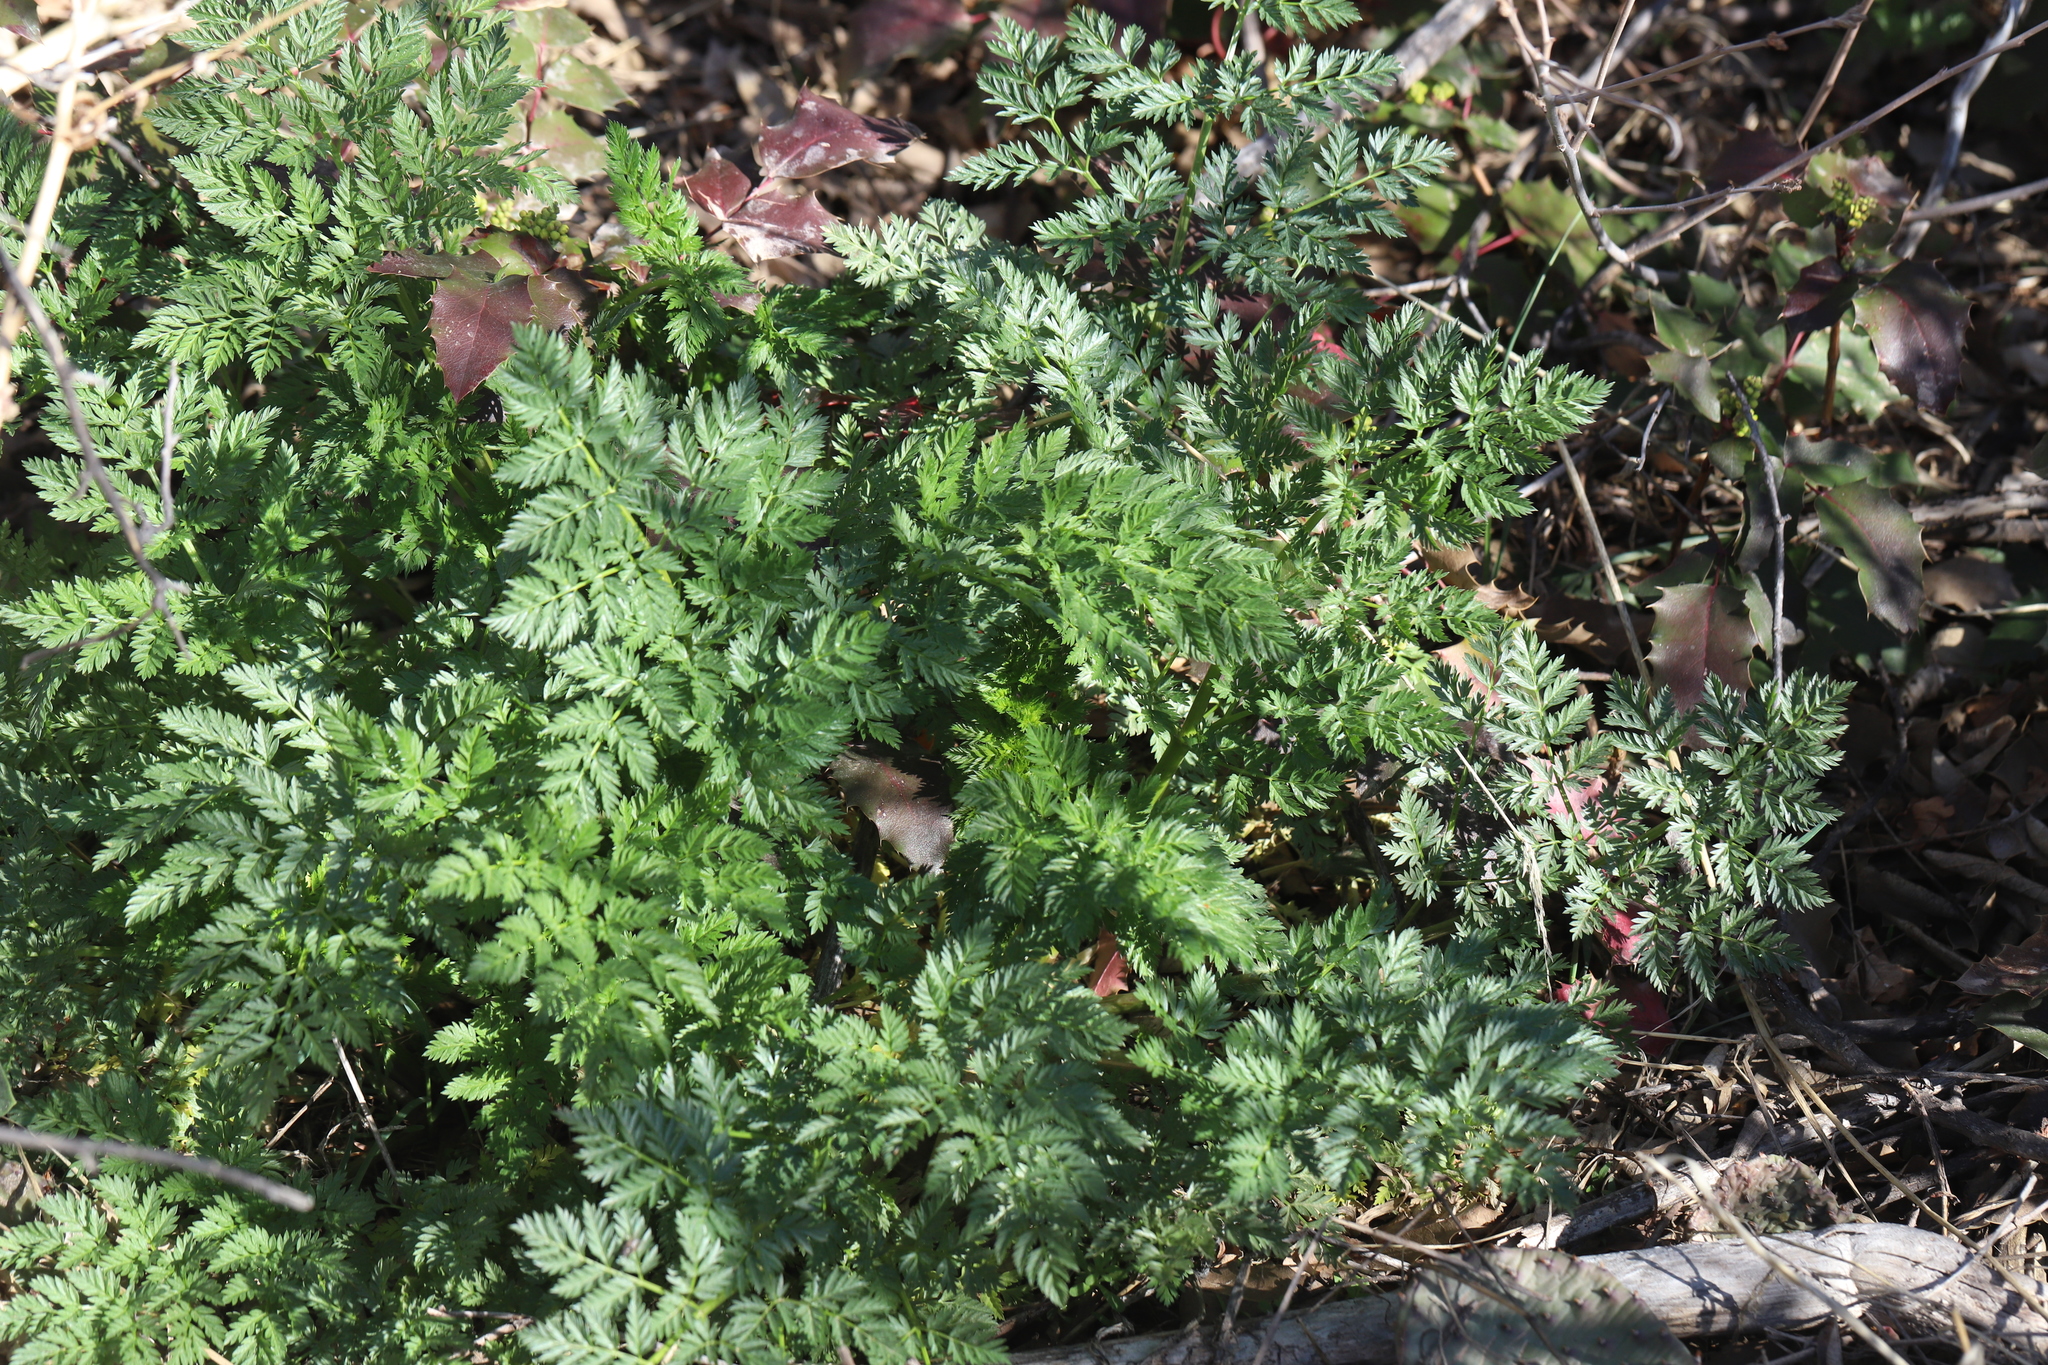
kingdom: Plantae
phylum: Tracheophyta
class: Magnoliopsida
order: Apiales
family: Apiaceae
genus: Conium
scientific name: Conium maculatum
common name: Hemlock
